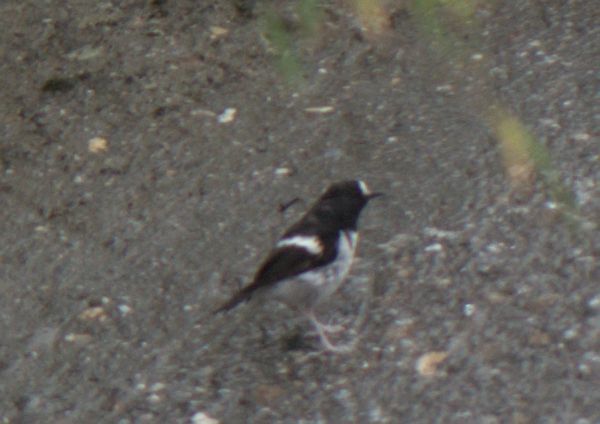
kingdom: Animalia
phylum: Chordata
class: Aves
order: Passeriformes
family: Muscicapidae
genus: Enicurus
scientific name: Enicurus scouleri
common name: Little forktail
